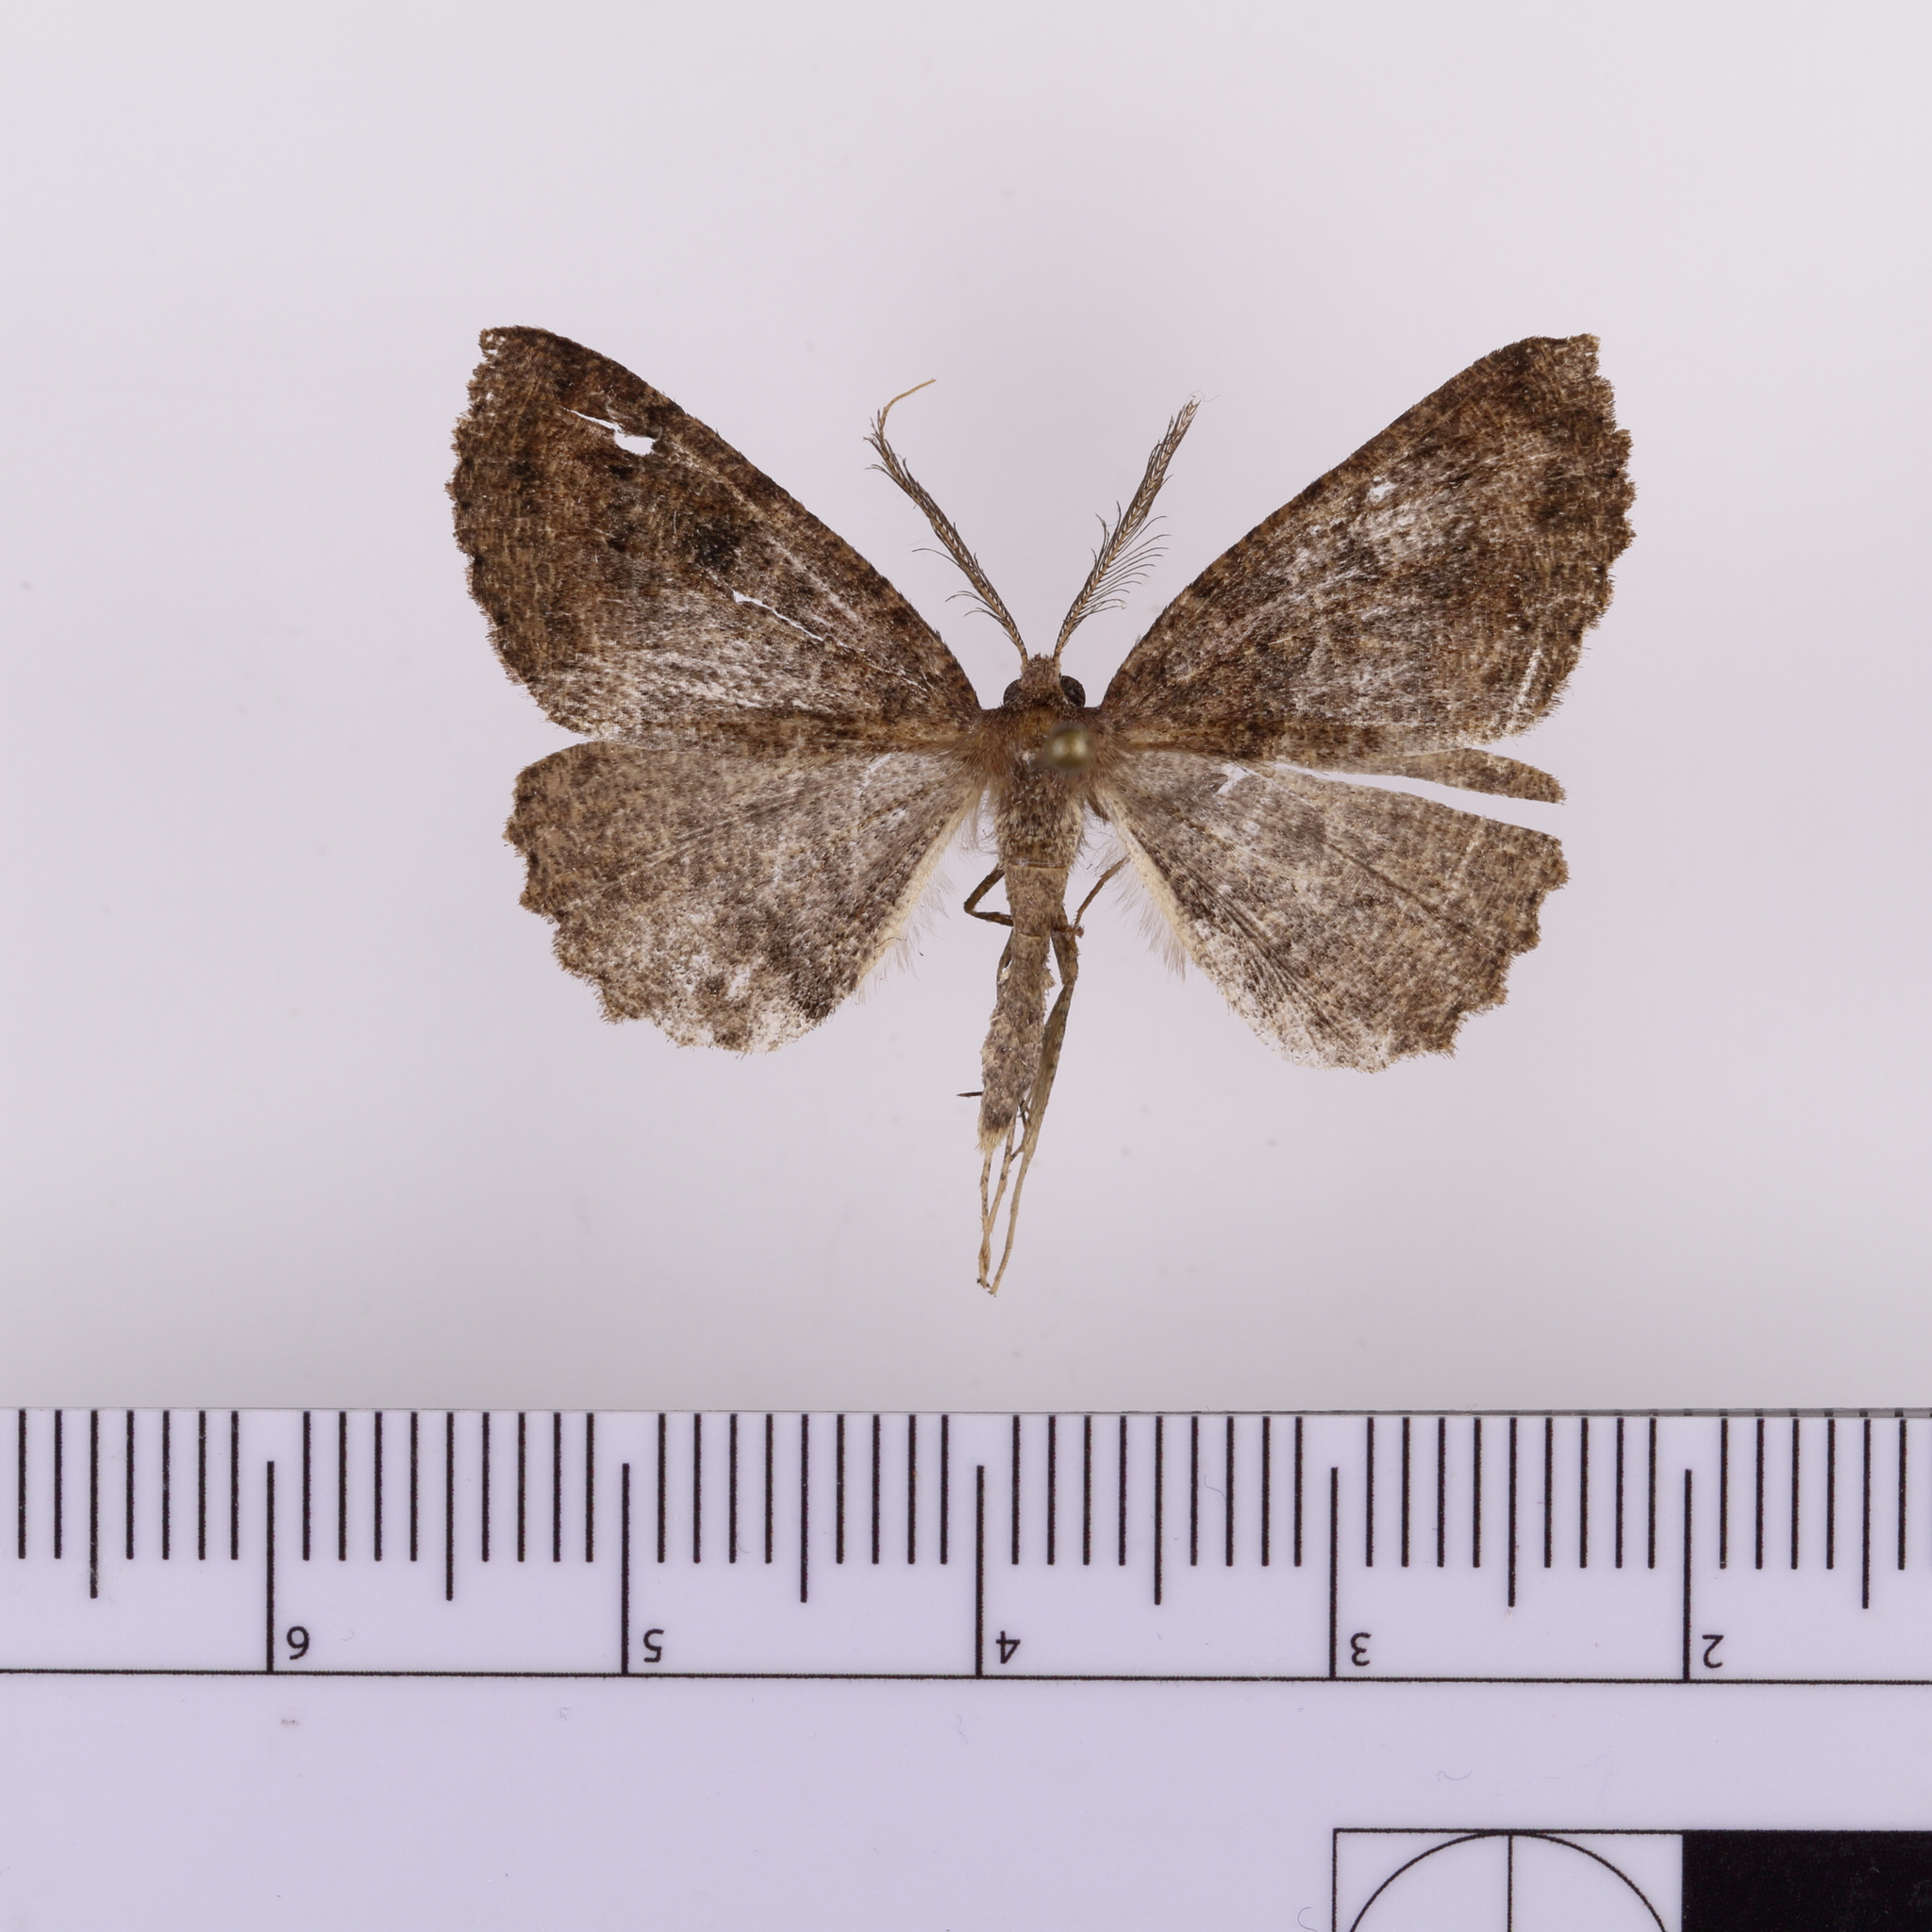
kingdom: Animalia
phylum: Arthropoda
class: Insecta
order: Lepidoptera
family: Geometridae
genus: Cleora
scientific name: Cleora scriptaria
